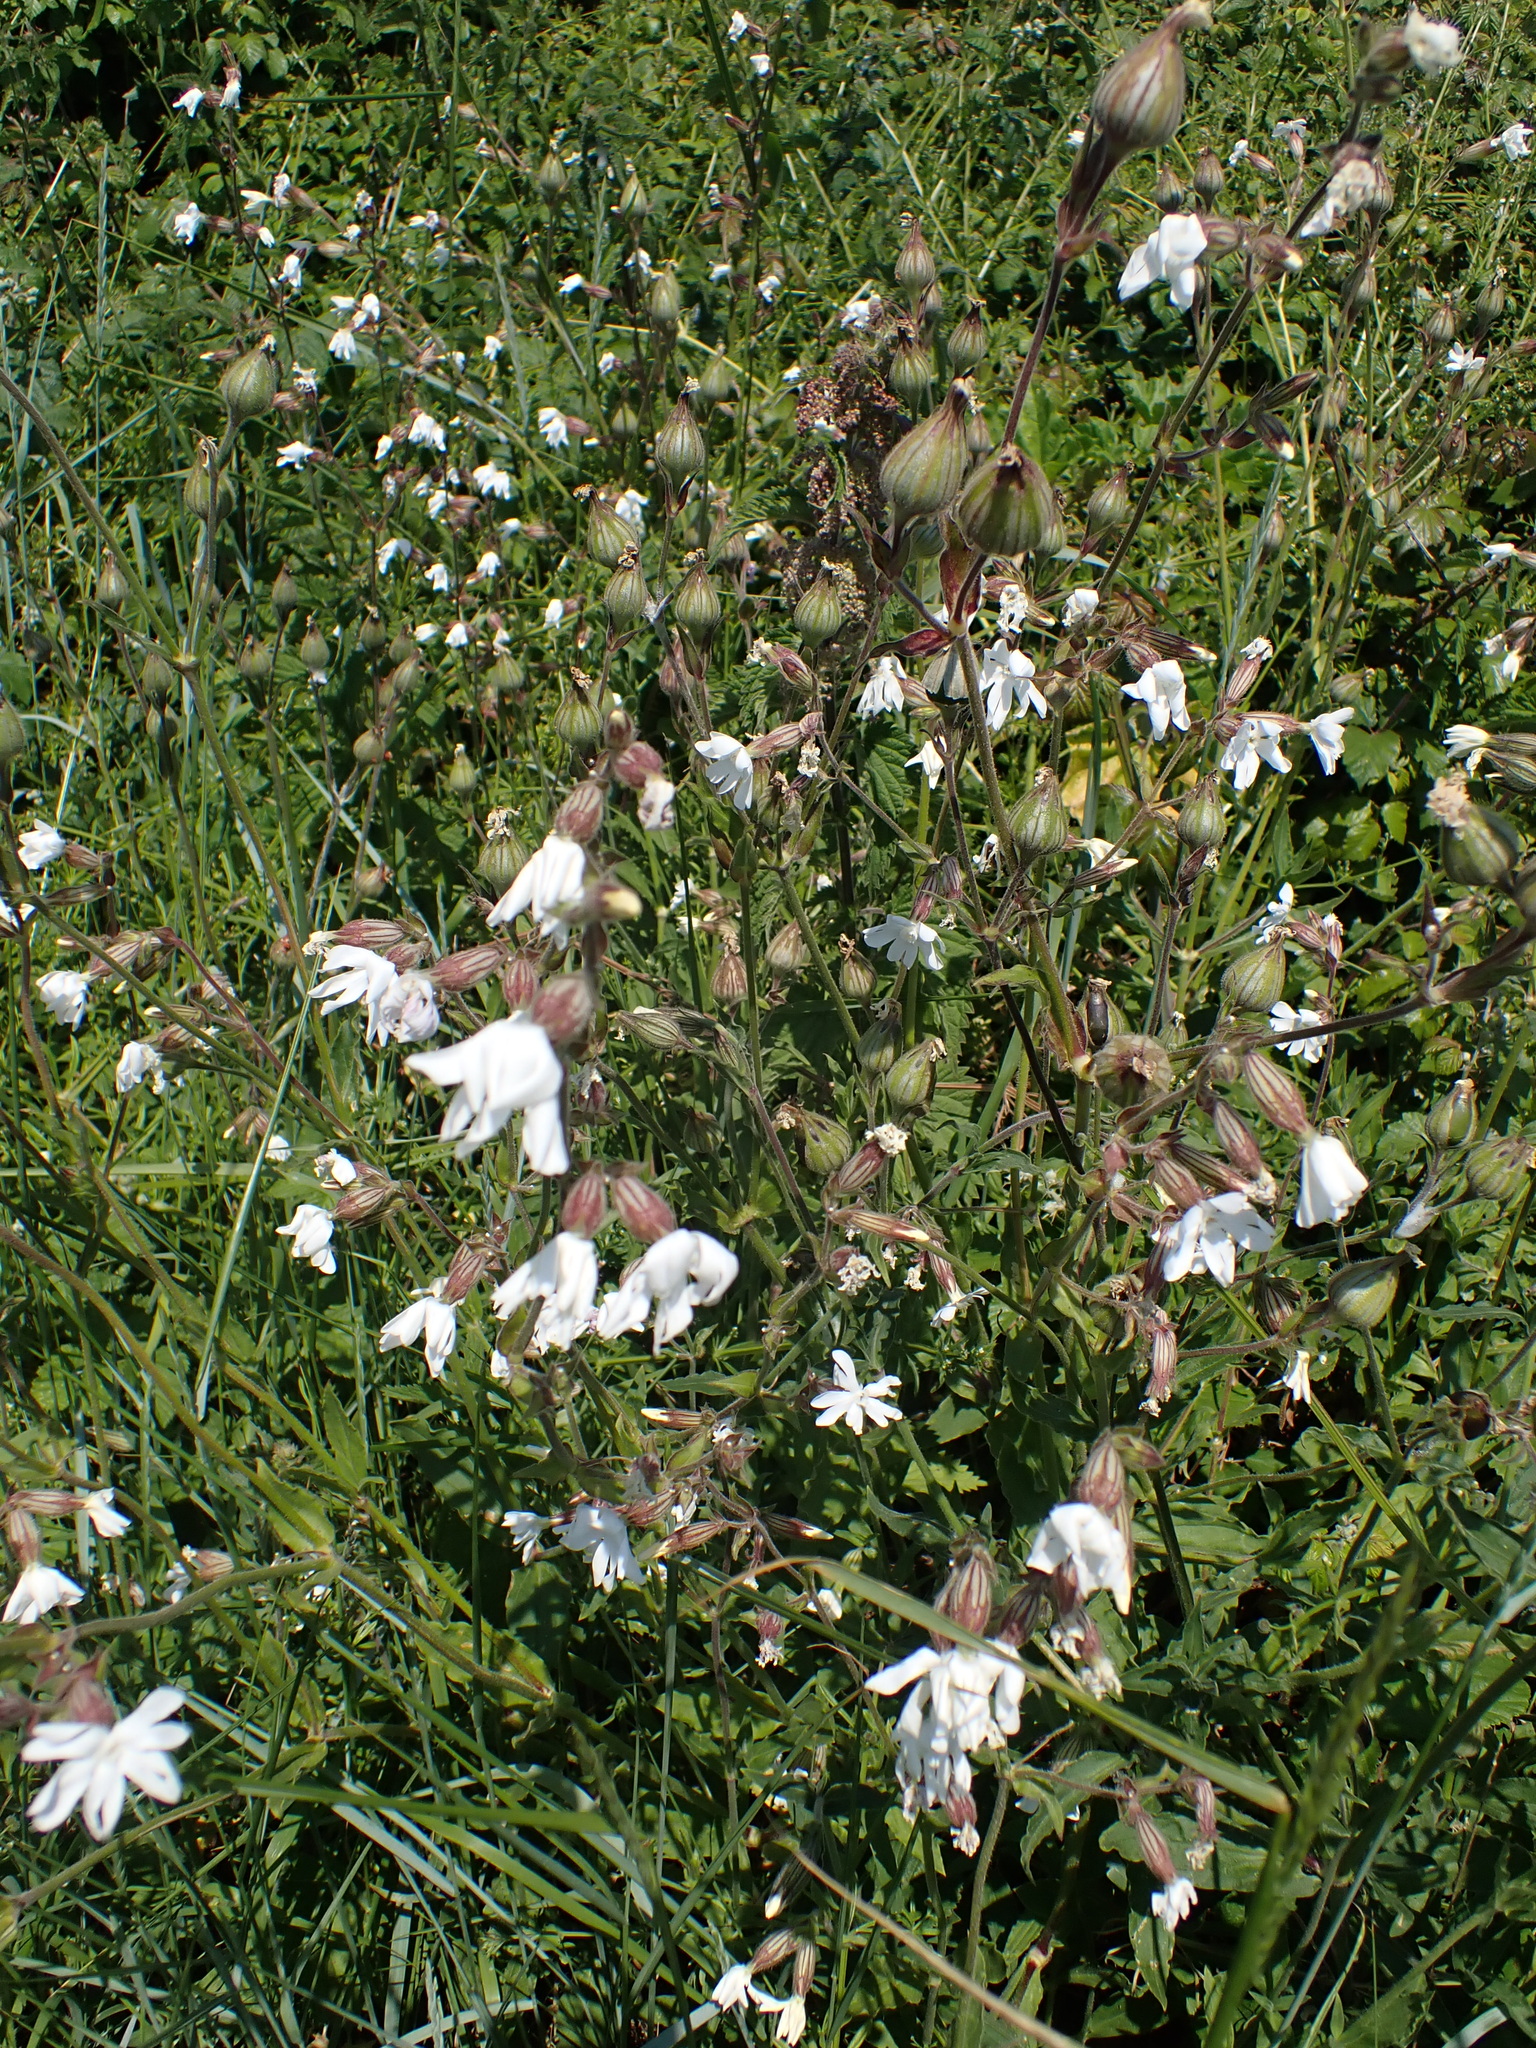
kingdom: Plantae
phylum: Tracheophyta
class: Magnoliopsida
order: Caryophyllales
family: Caryophyllaceae
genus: Silene
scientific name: Silene latifolia
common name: White campion
